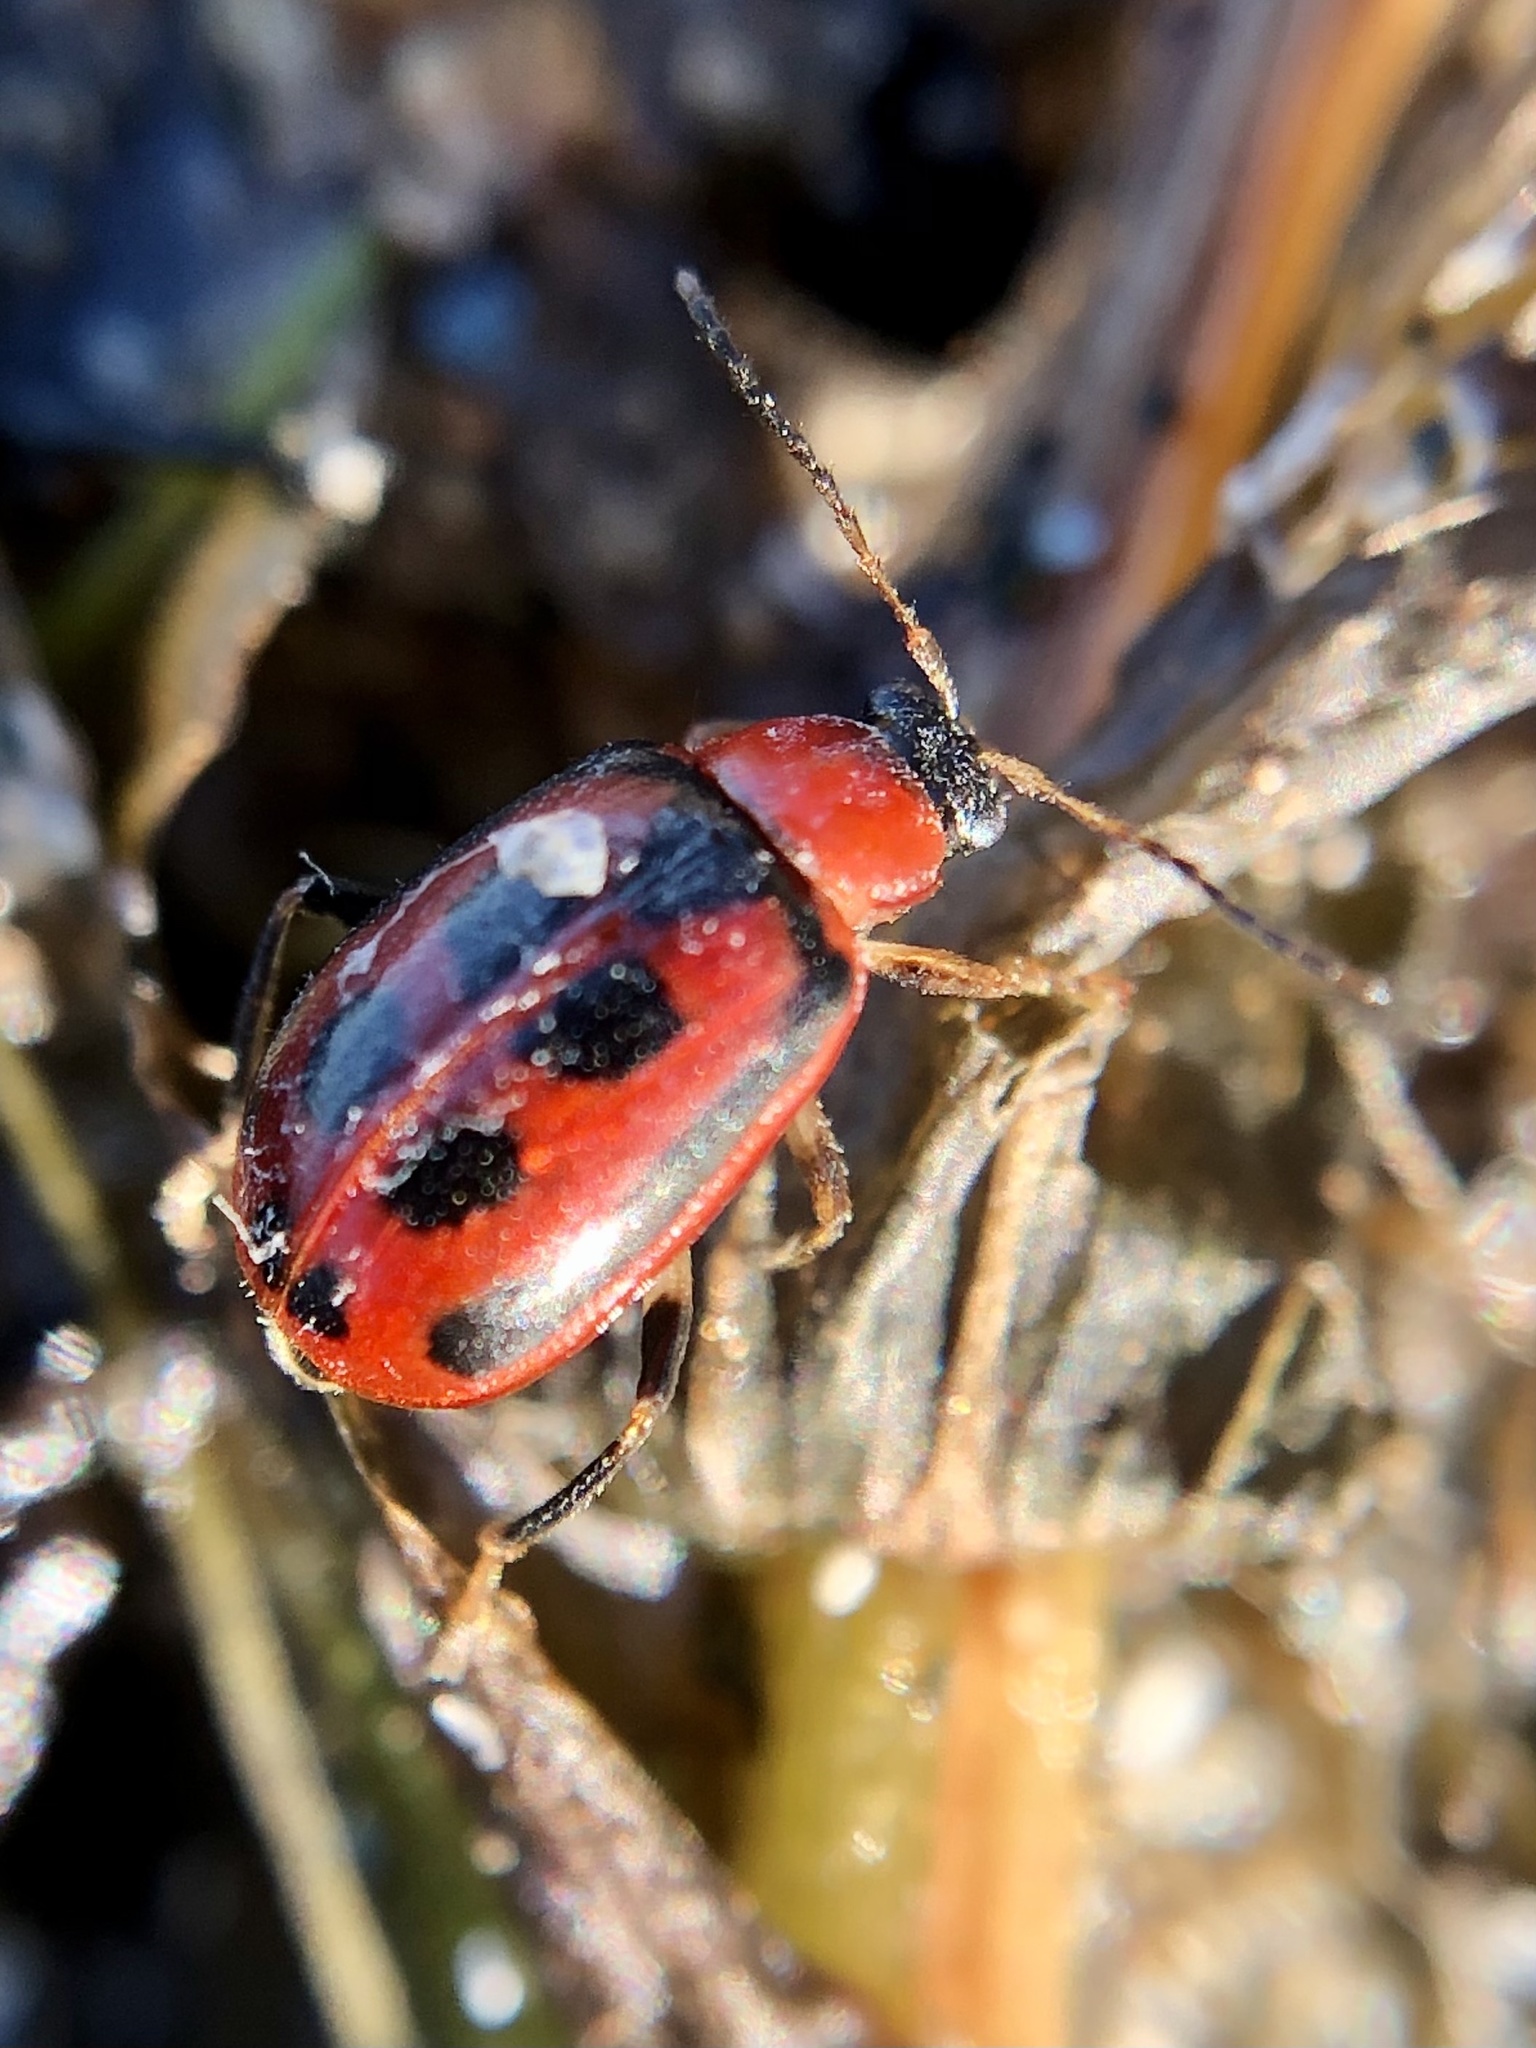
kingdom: Animalia
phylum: Arthropoda
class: Insecta
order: Coleoptera
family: Chrysomelidae
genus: Cerotoma
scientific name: Cerotoma trifurcata
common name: Bean leaf beetle
